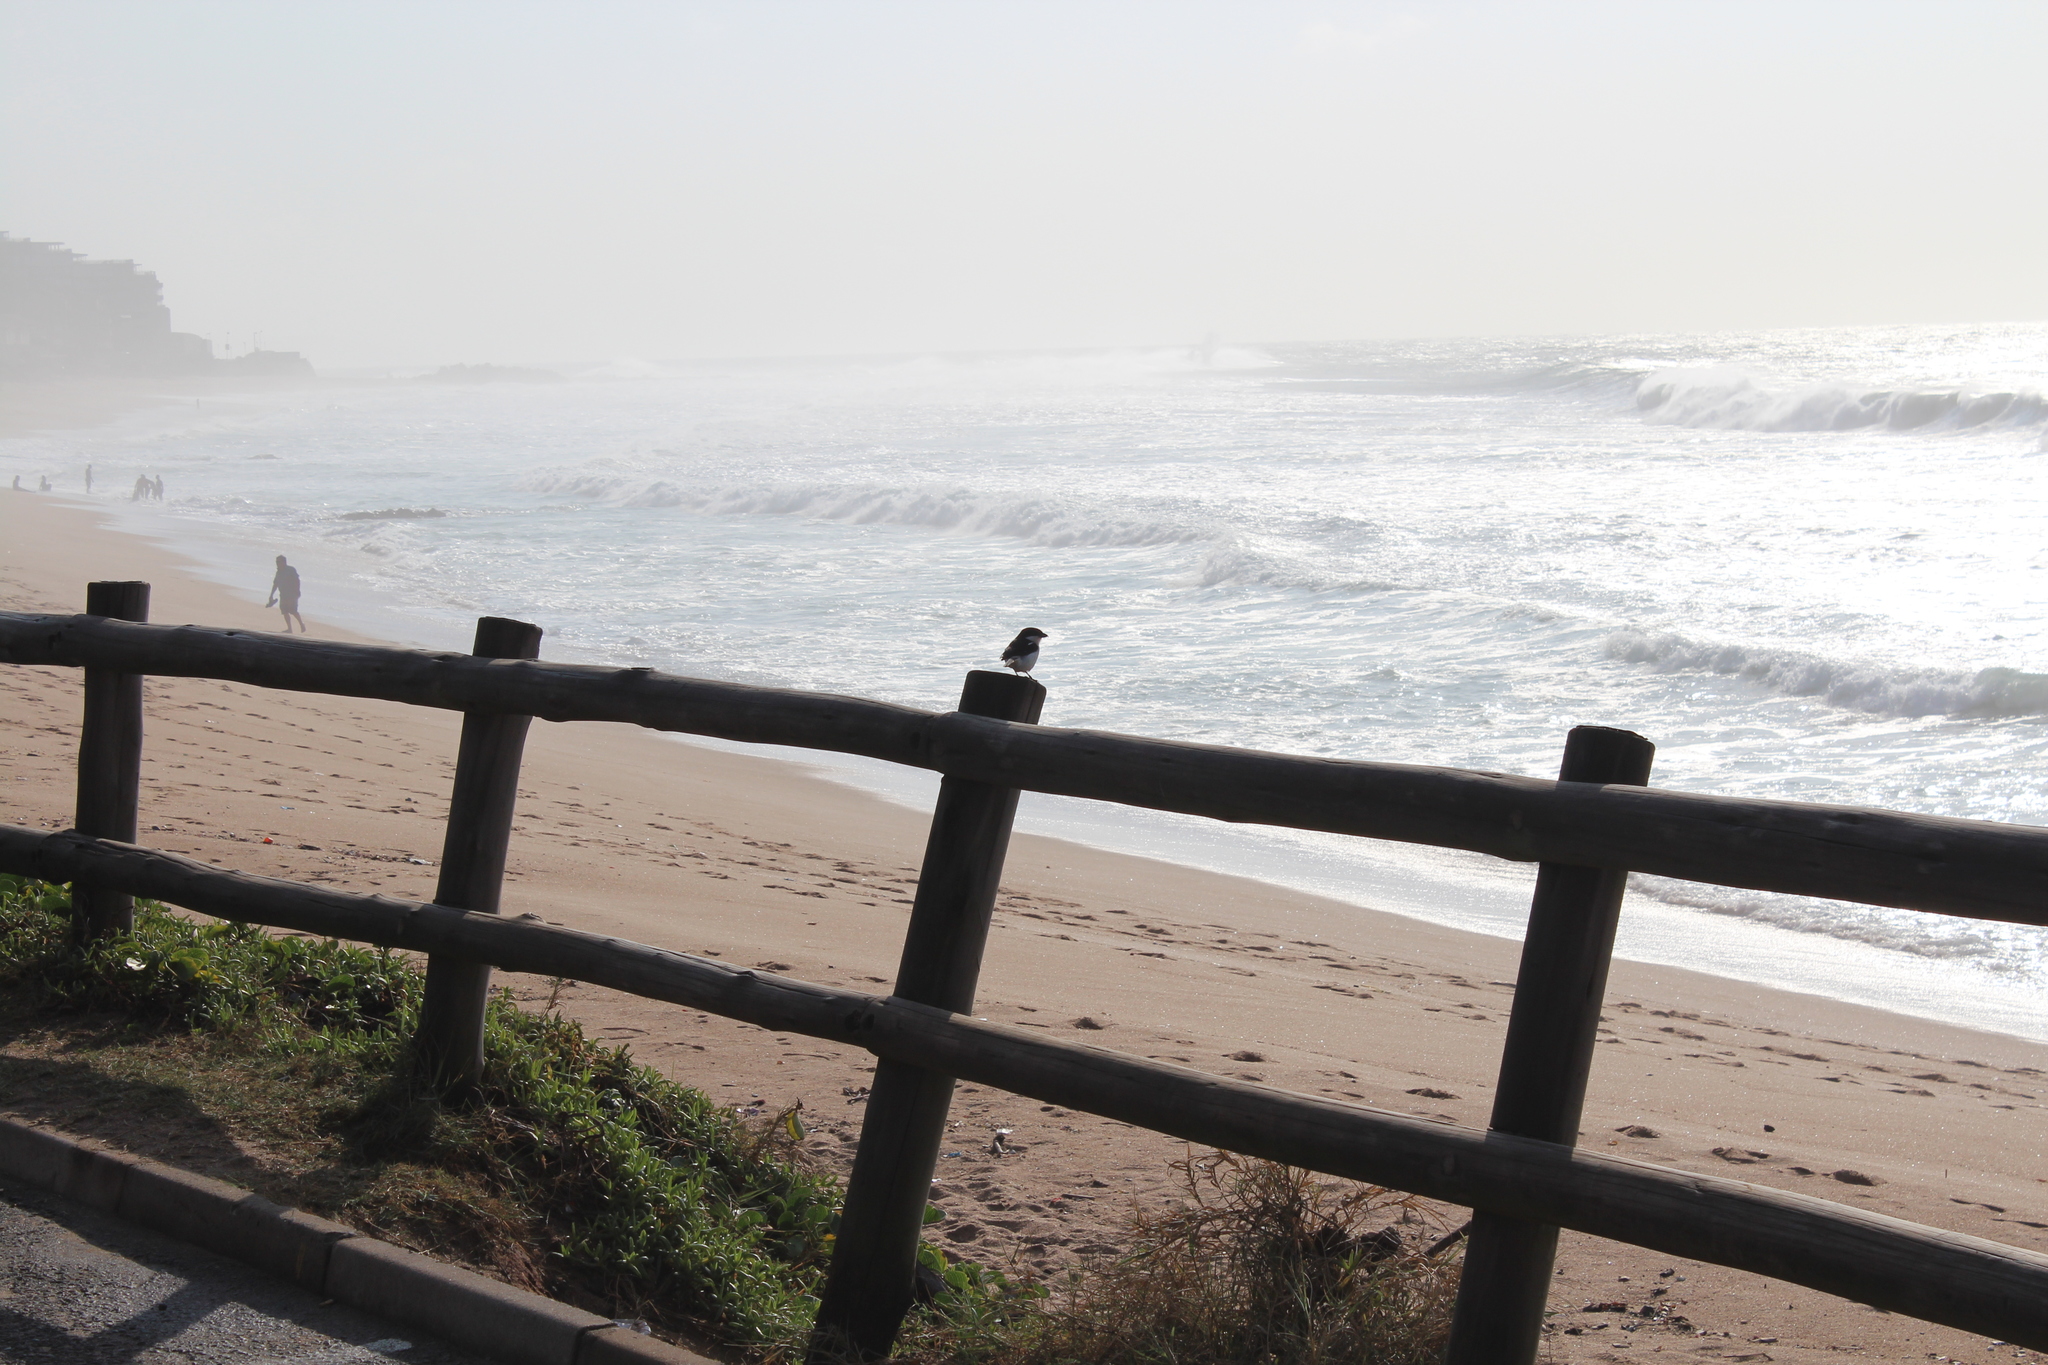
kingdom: Animalia
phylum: Chordata
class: Aves
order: Passeriformes
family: Laniidae
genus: Lanius
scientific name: Lanius collaris
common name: Southern fiscal
